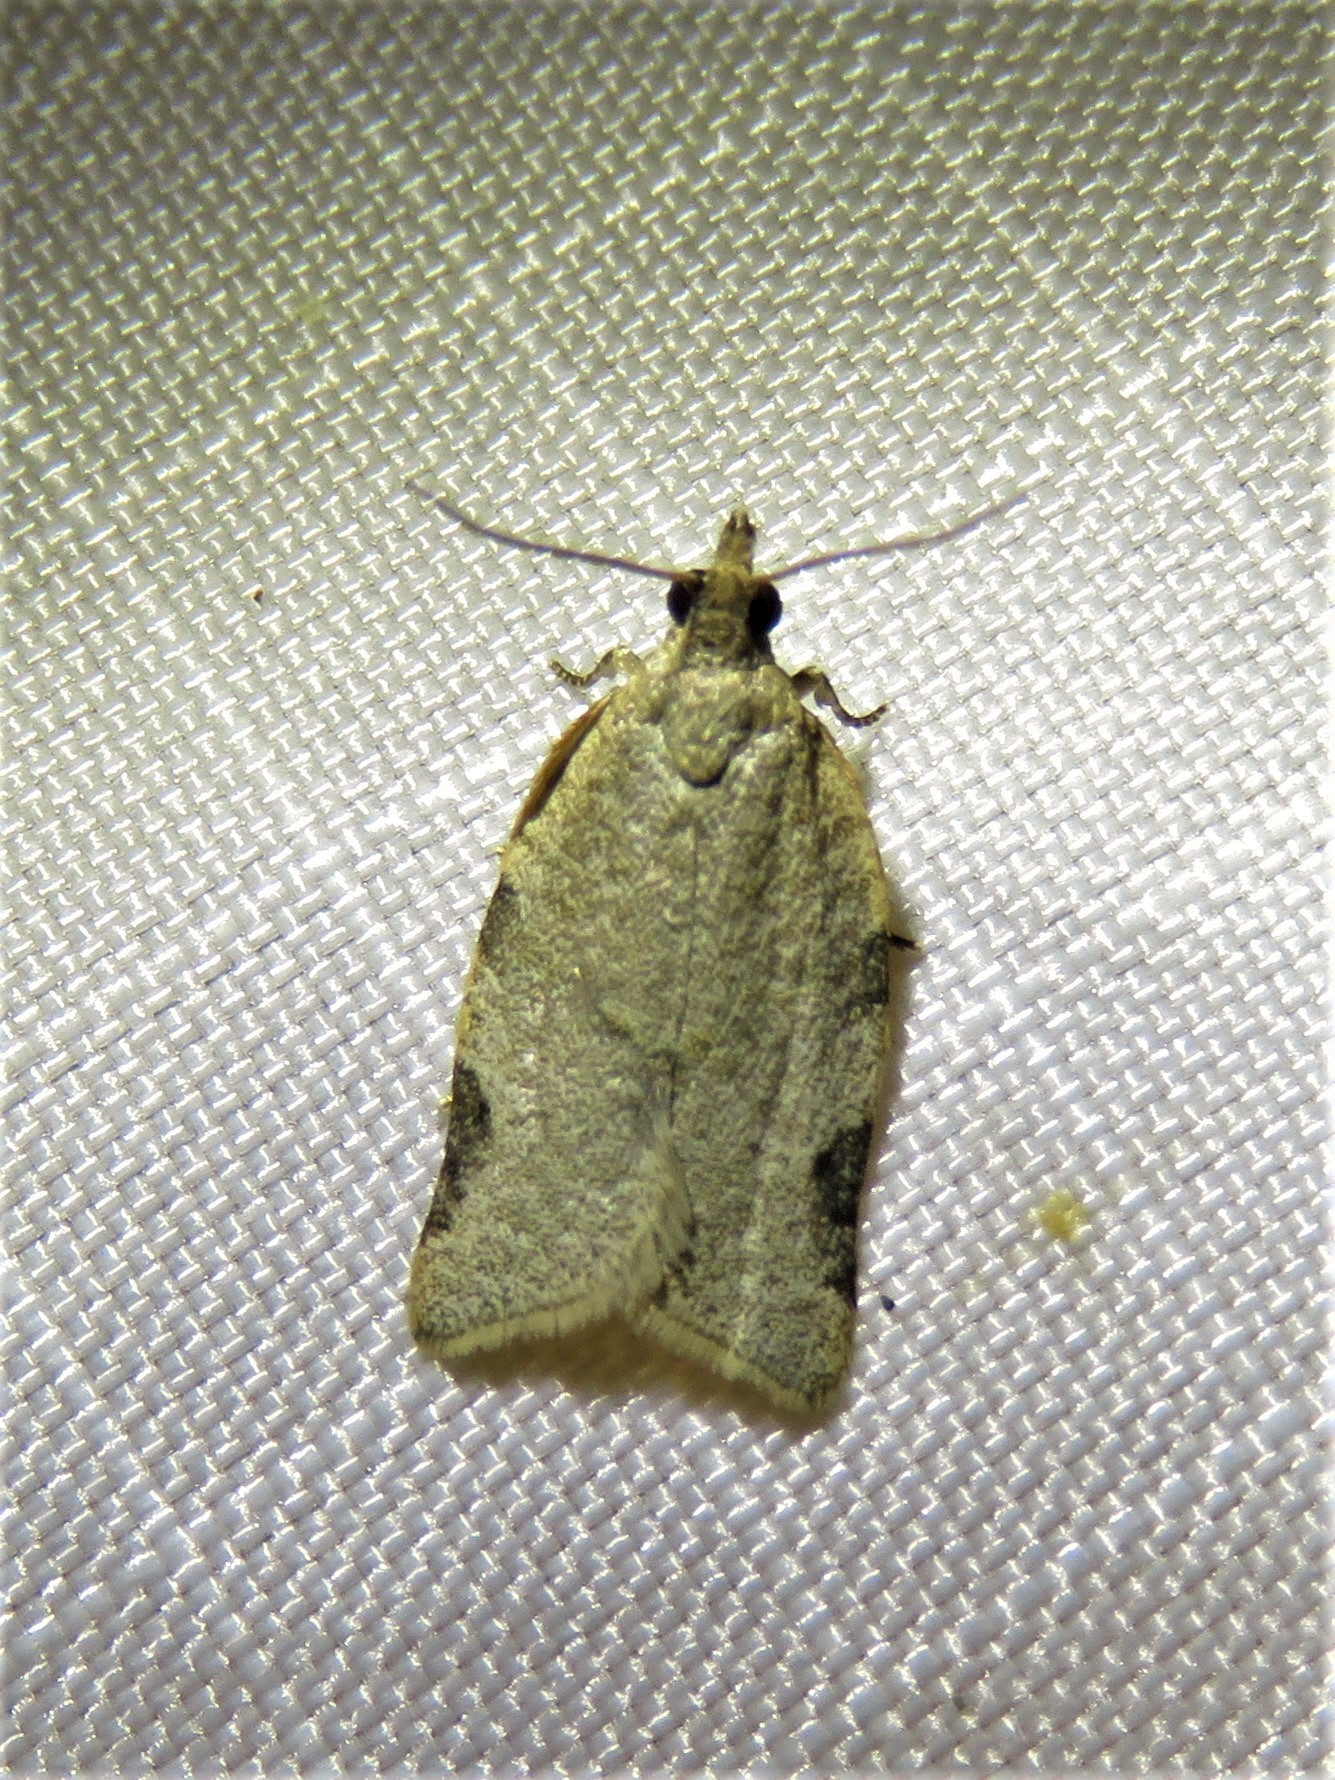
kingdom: Animalia
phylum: Arthropoda
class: Insecta
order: Lepidoptera
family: Tortricidae
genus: Clepsis
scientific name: Clepsis virescana
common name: Greenish apple moth
